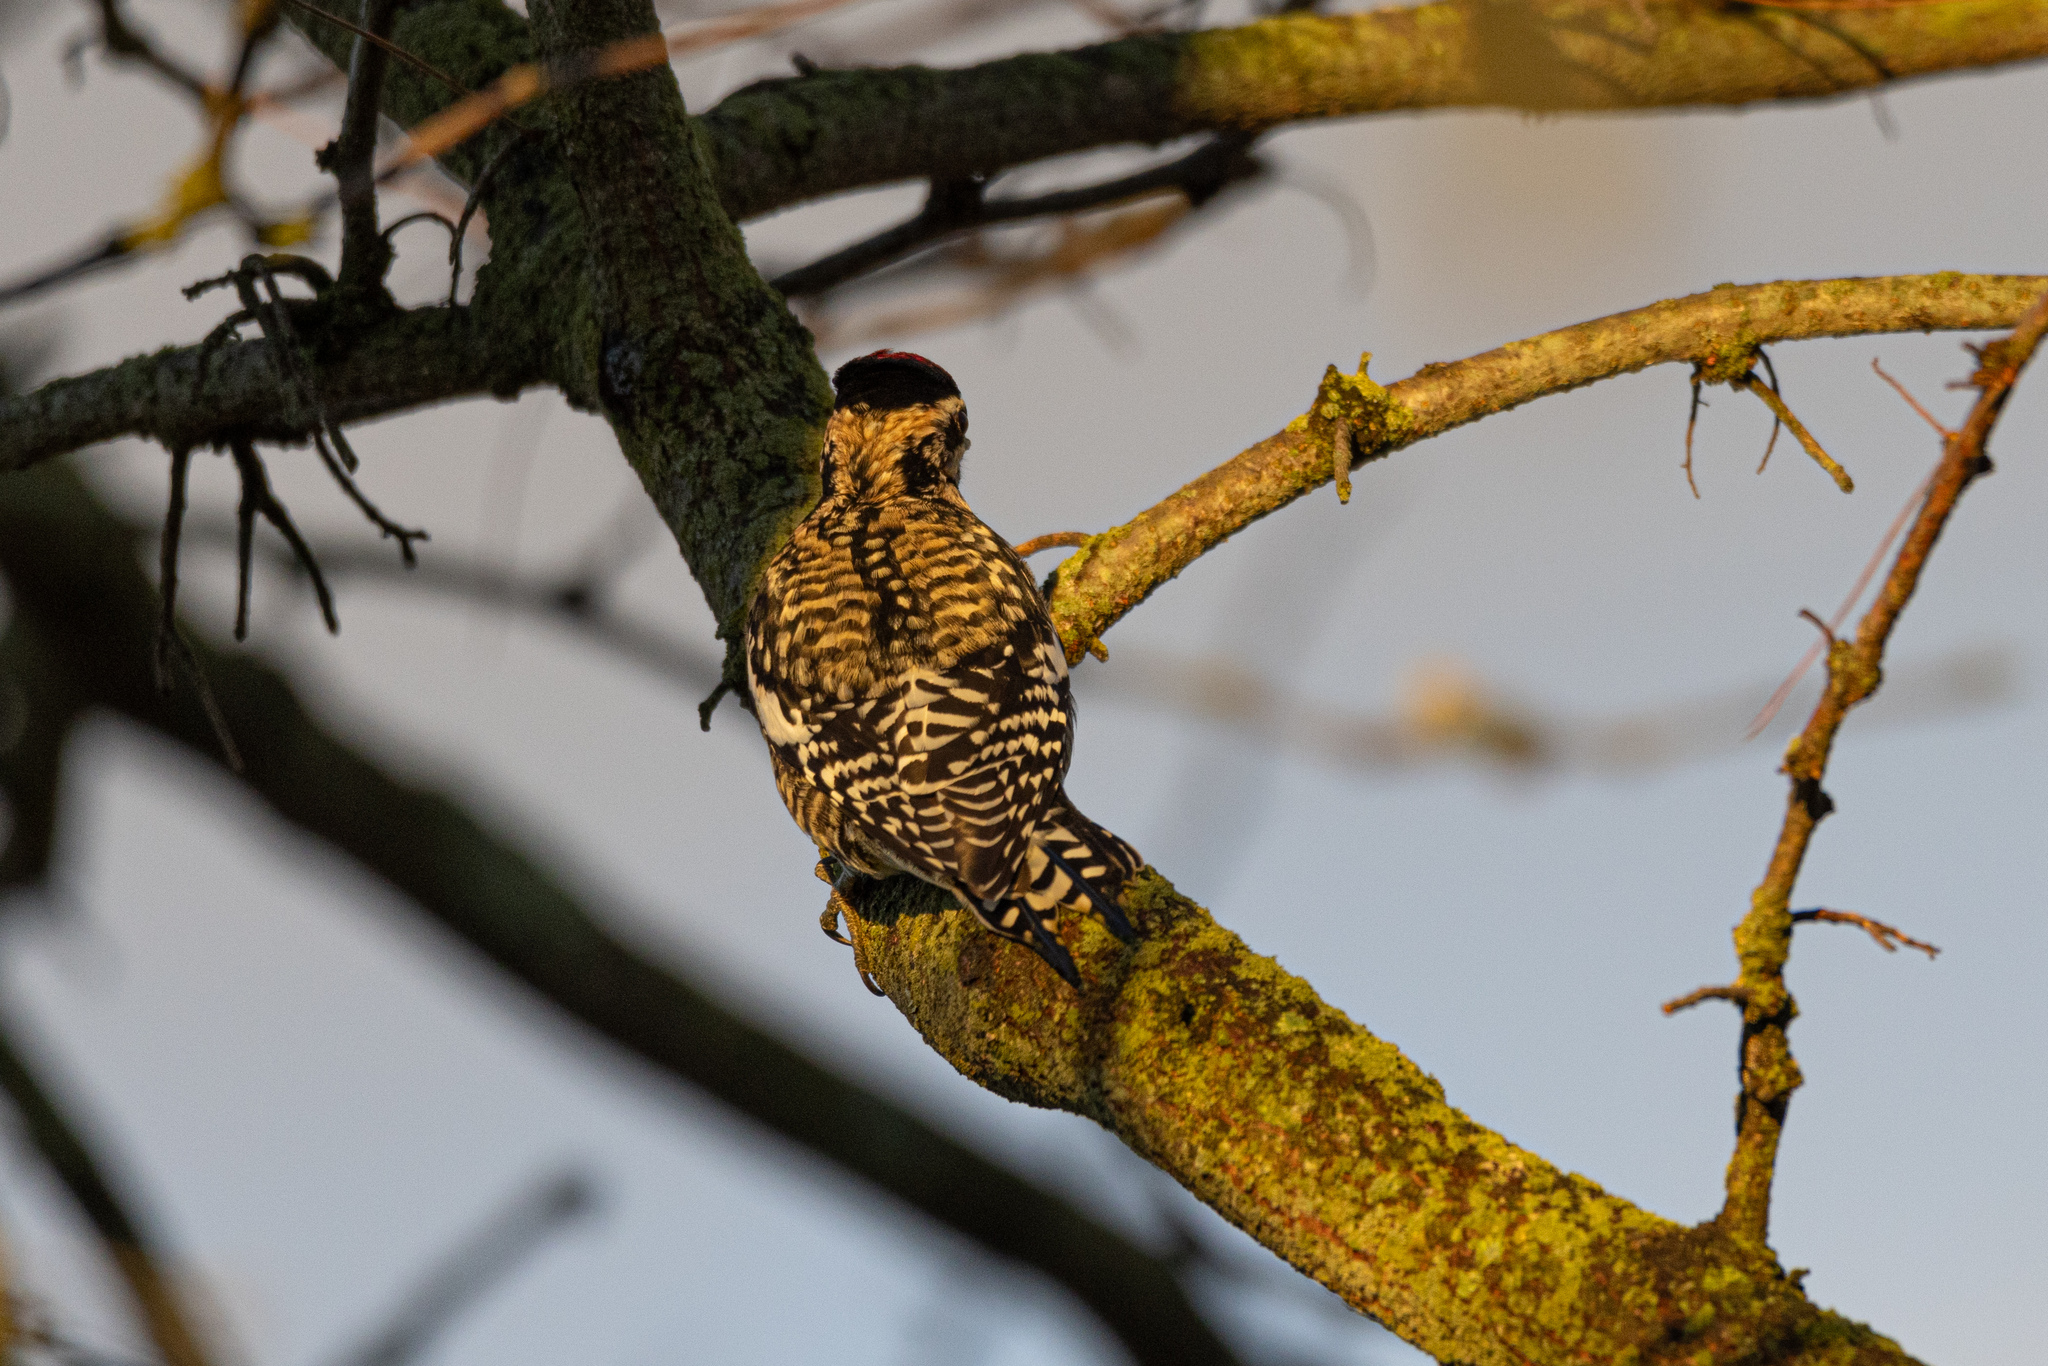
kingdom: Animalia
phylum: Chordata
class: Aves
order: Piciformes
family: Picidae
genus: Sphyrapicus
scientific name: Sphyrapicus varius
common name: Yellow-bellied sapsucker
